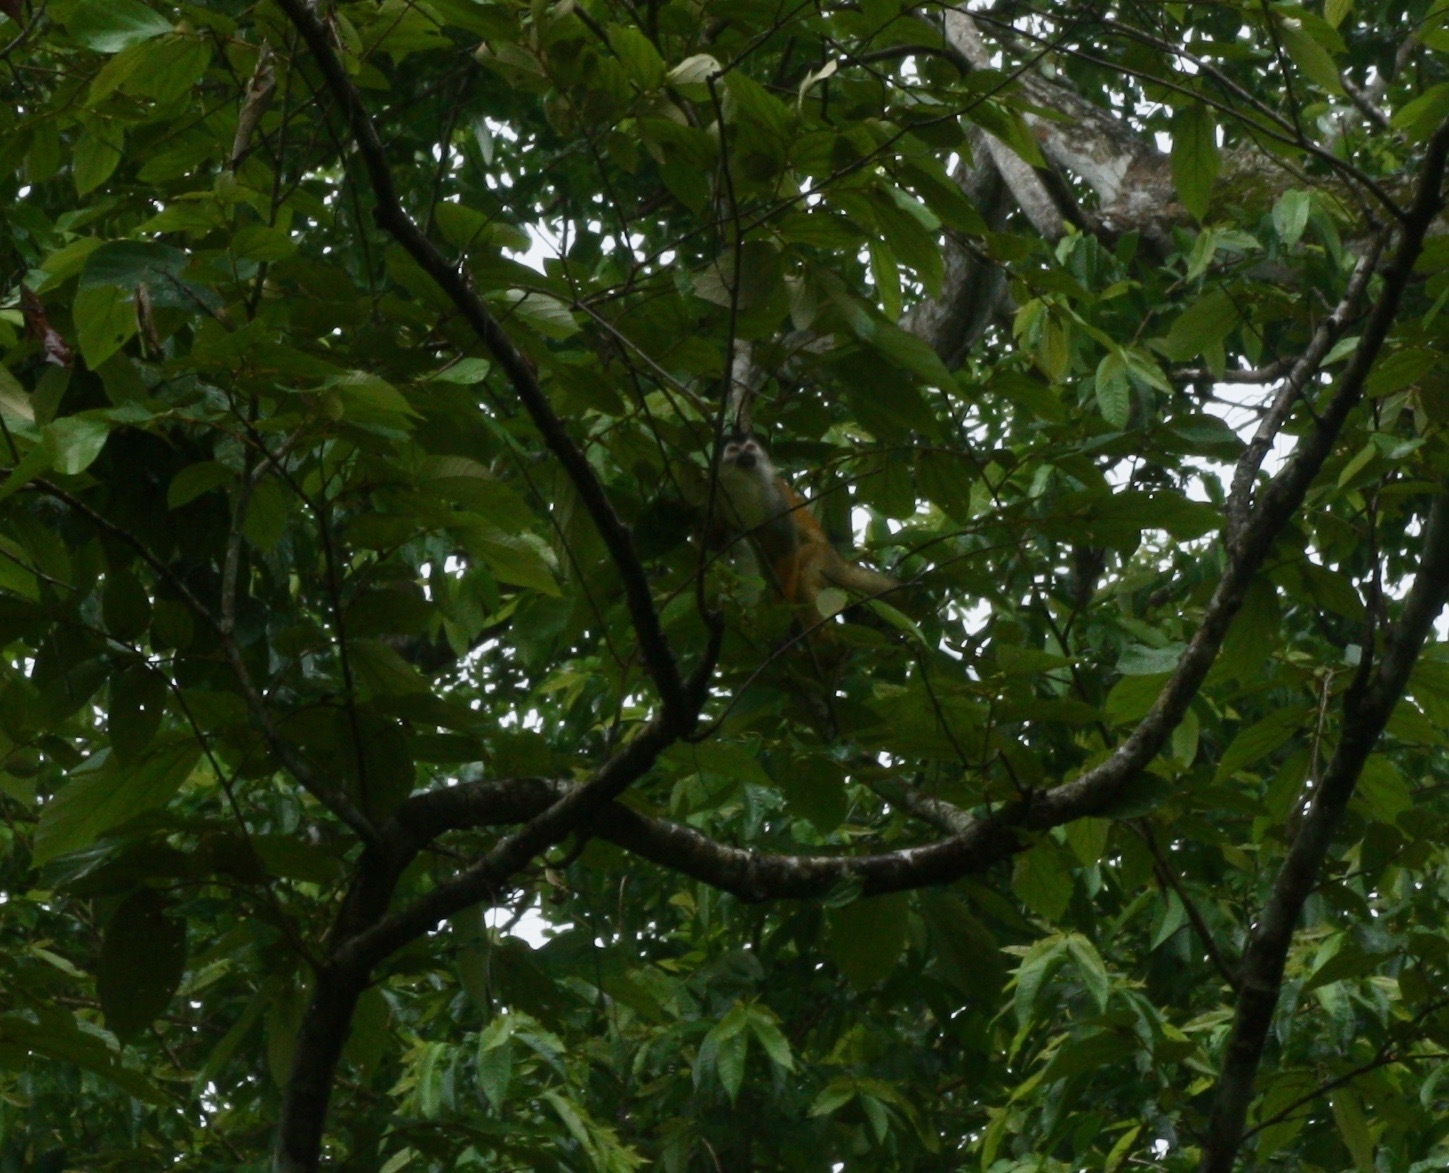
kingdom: Animalia
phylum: Chordata
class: Mammalia
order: Primates
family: Cebidae
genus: Saimiri
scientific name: Saimiri oerstedii
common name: Central american squirrel monkey
